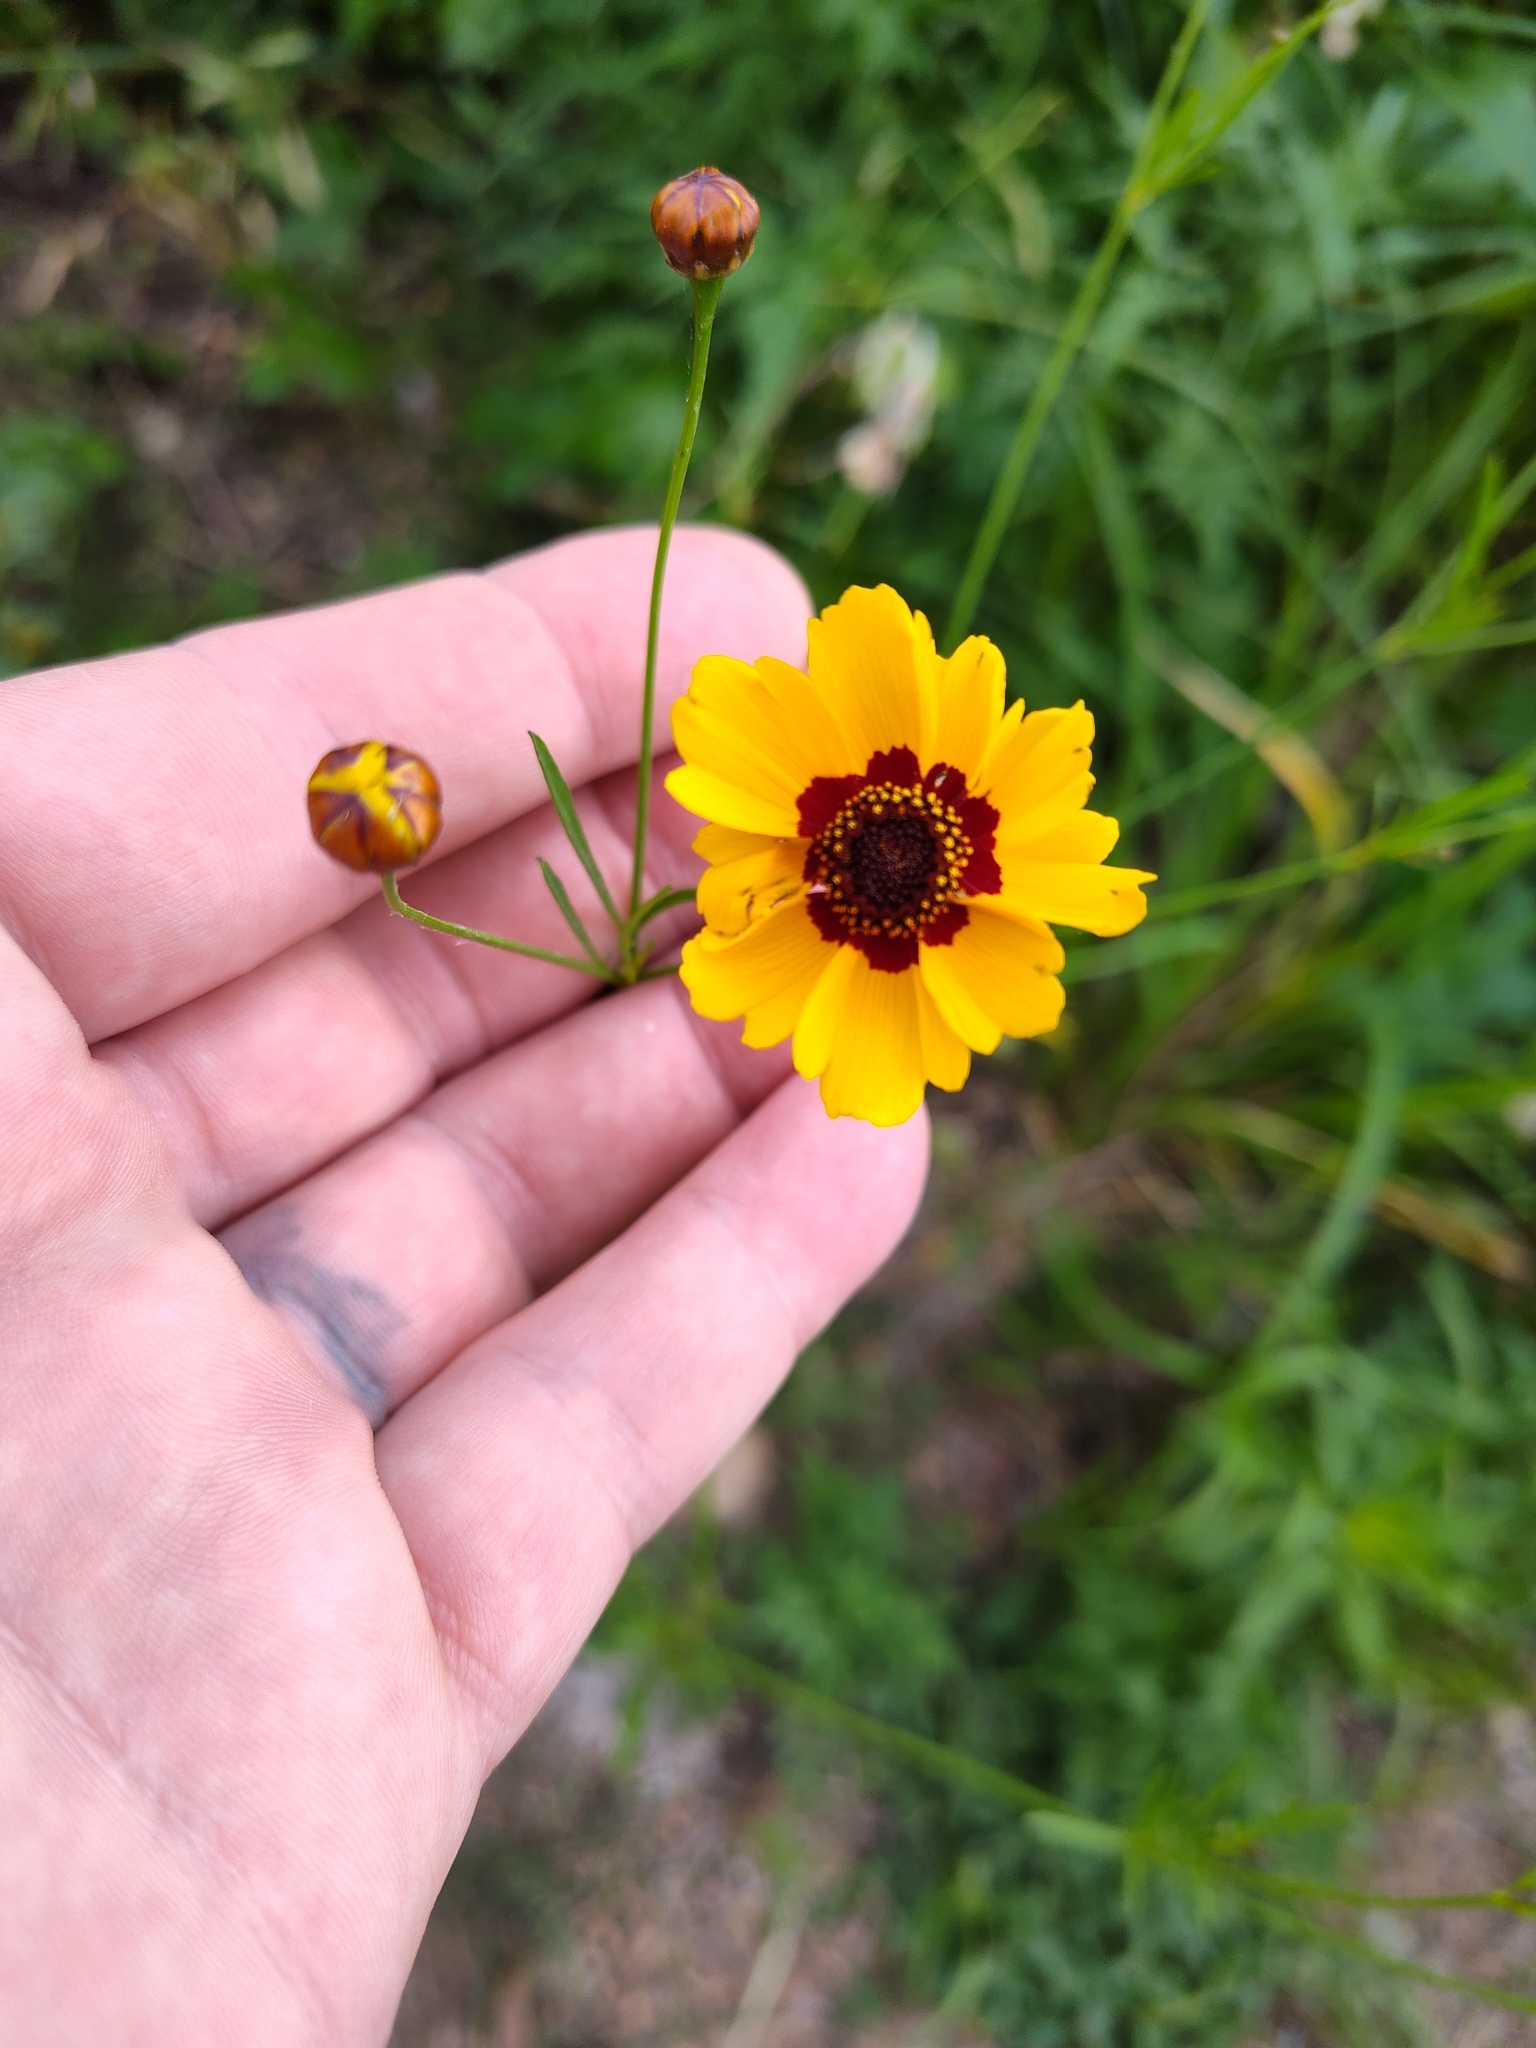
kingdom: Plantae
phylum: Tracheophyta
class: Magnoliopsida
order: Asterales
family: Asteraceae
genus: Coreopsis
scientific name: Coreopsis tinctoria
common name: Garden tickseed
